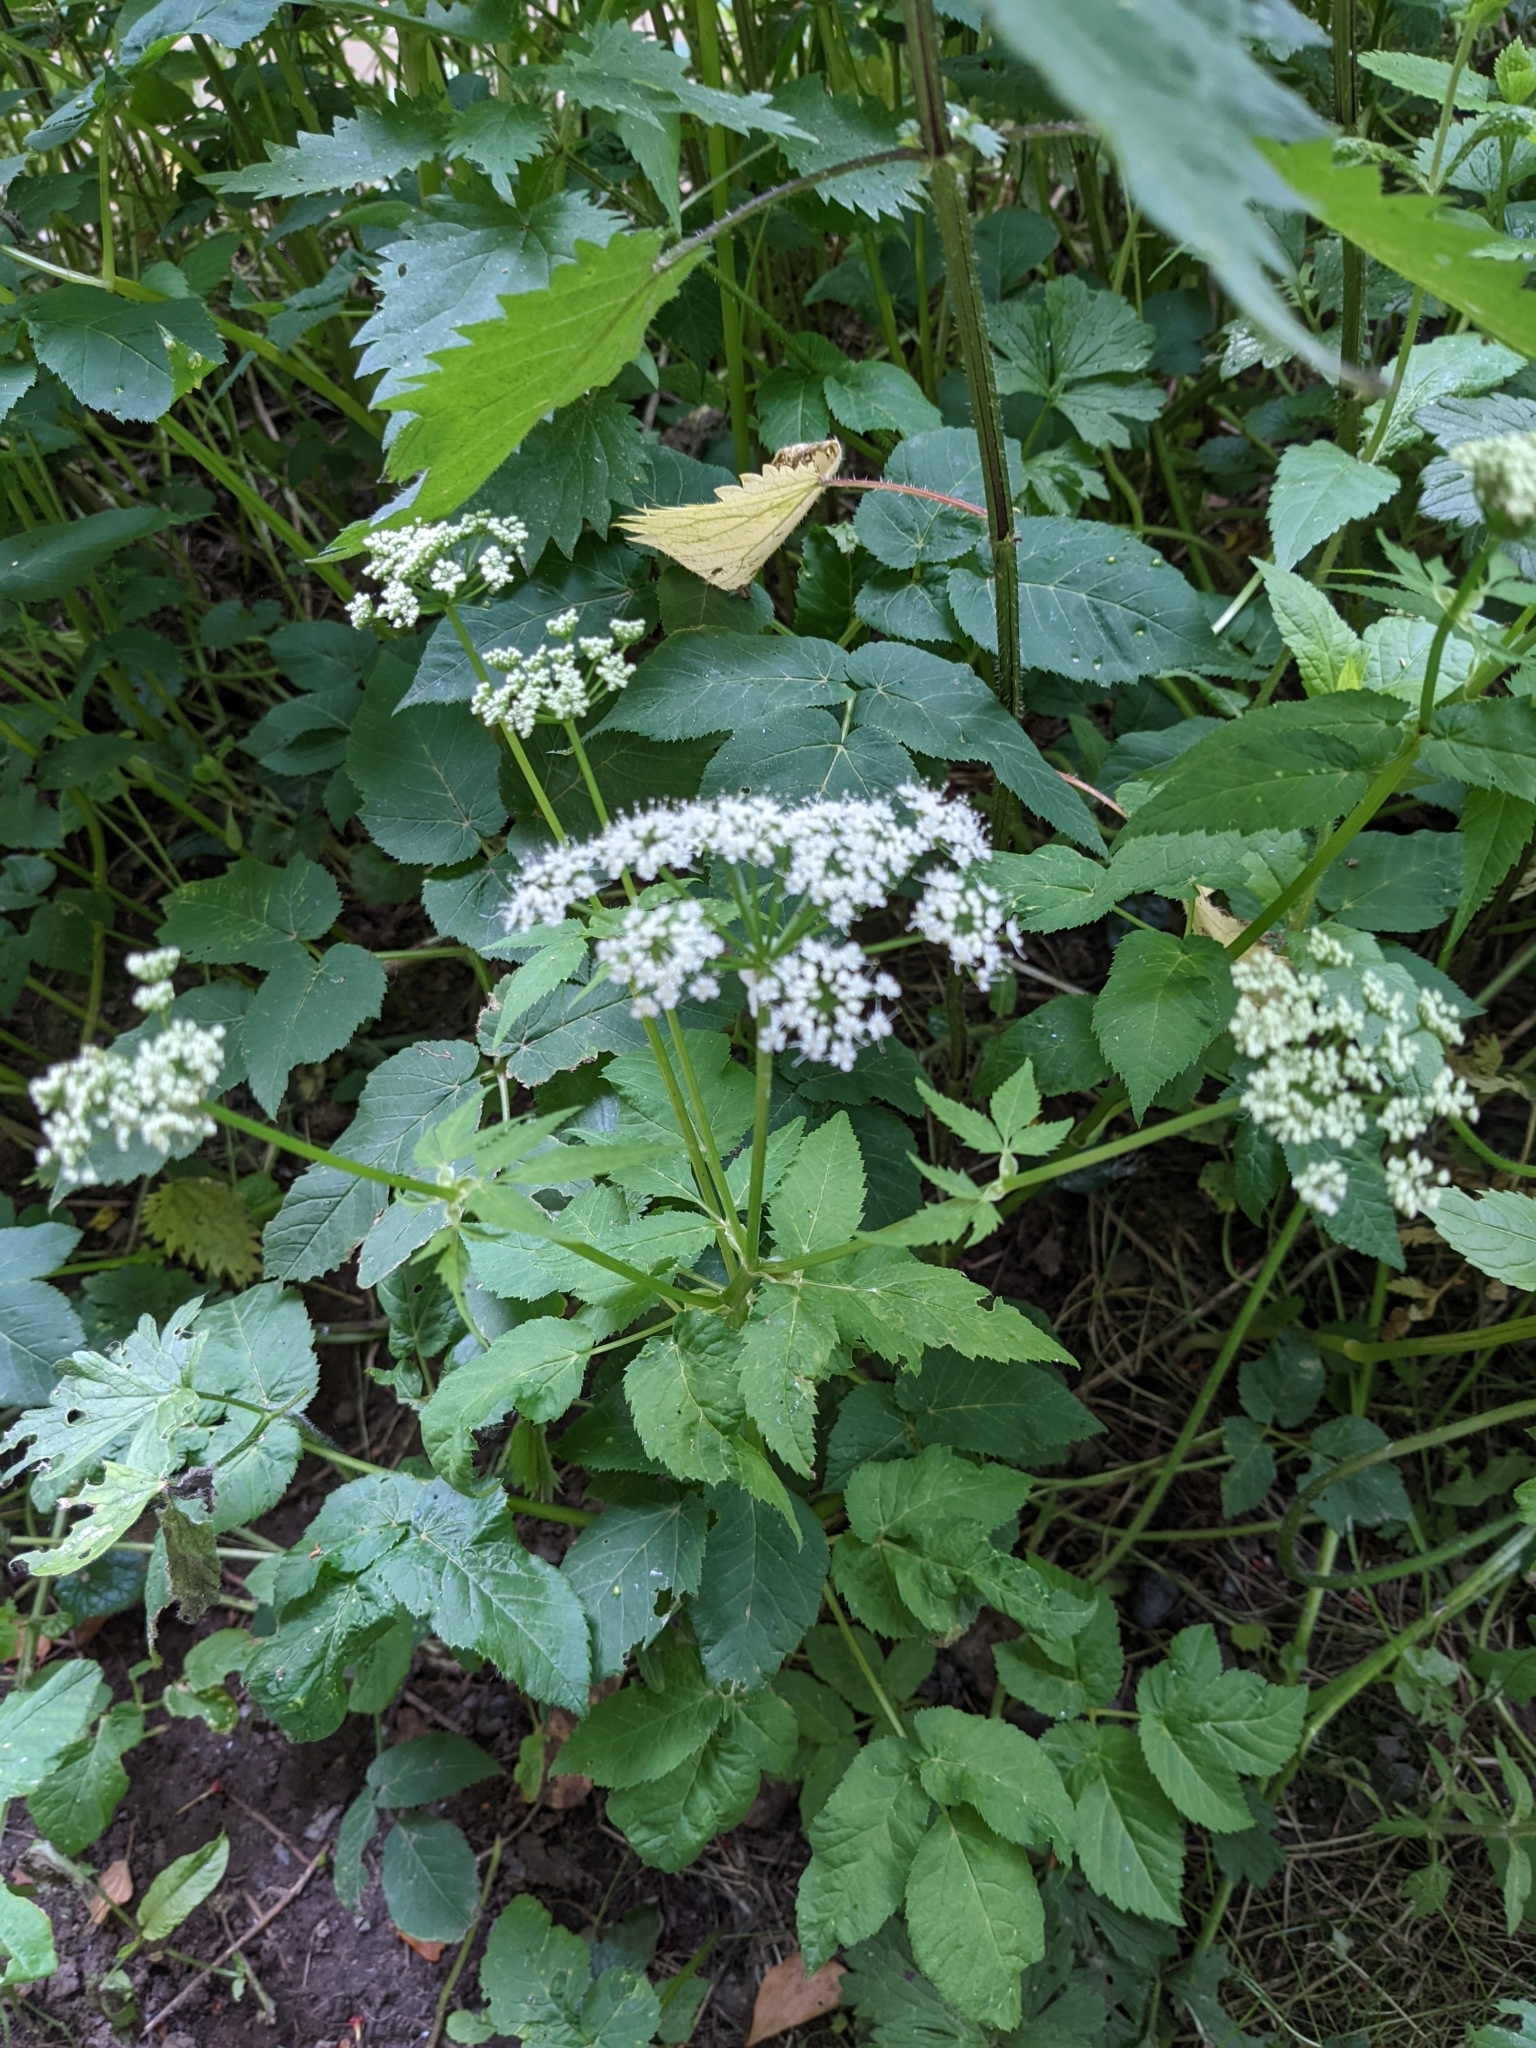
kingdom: Plantae
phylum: Tracheophyta
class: Magnoliopsida
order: Apiales
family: Apiaceae
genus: Aegopodium
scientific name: Aegopodium podagraria
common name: Ground-elder
